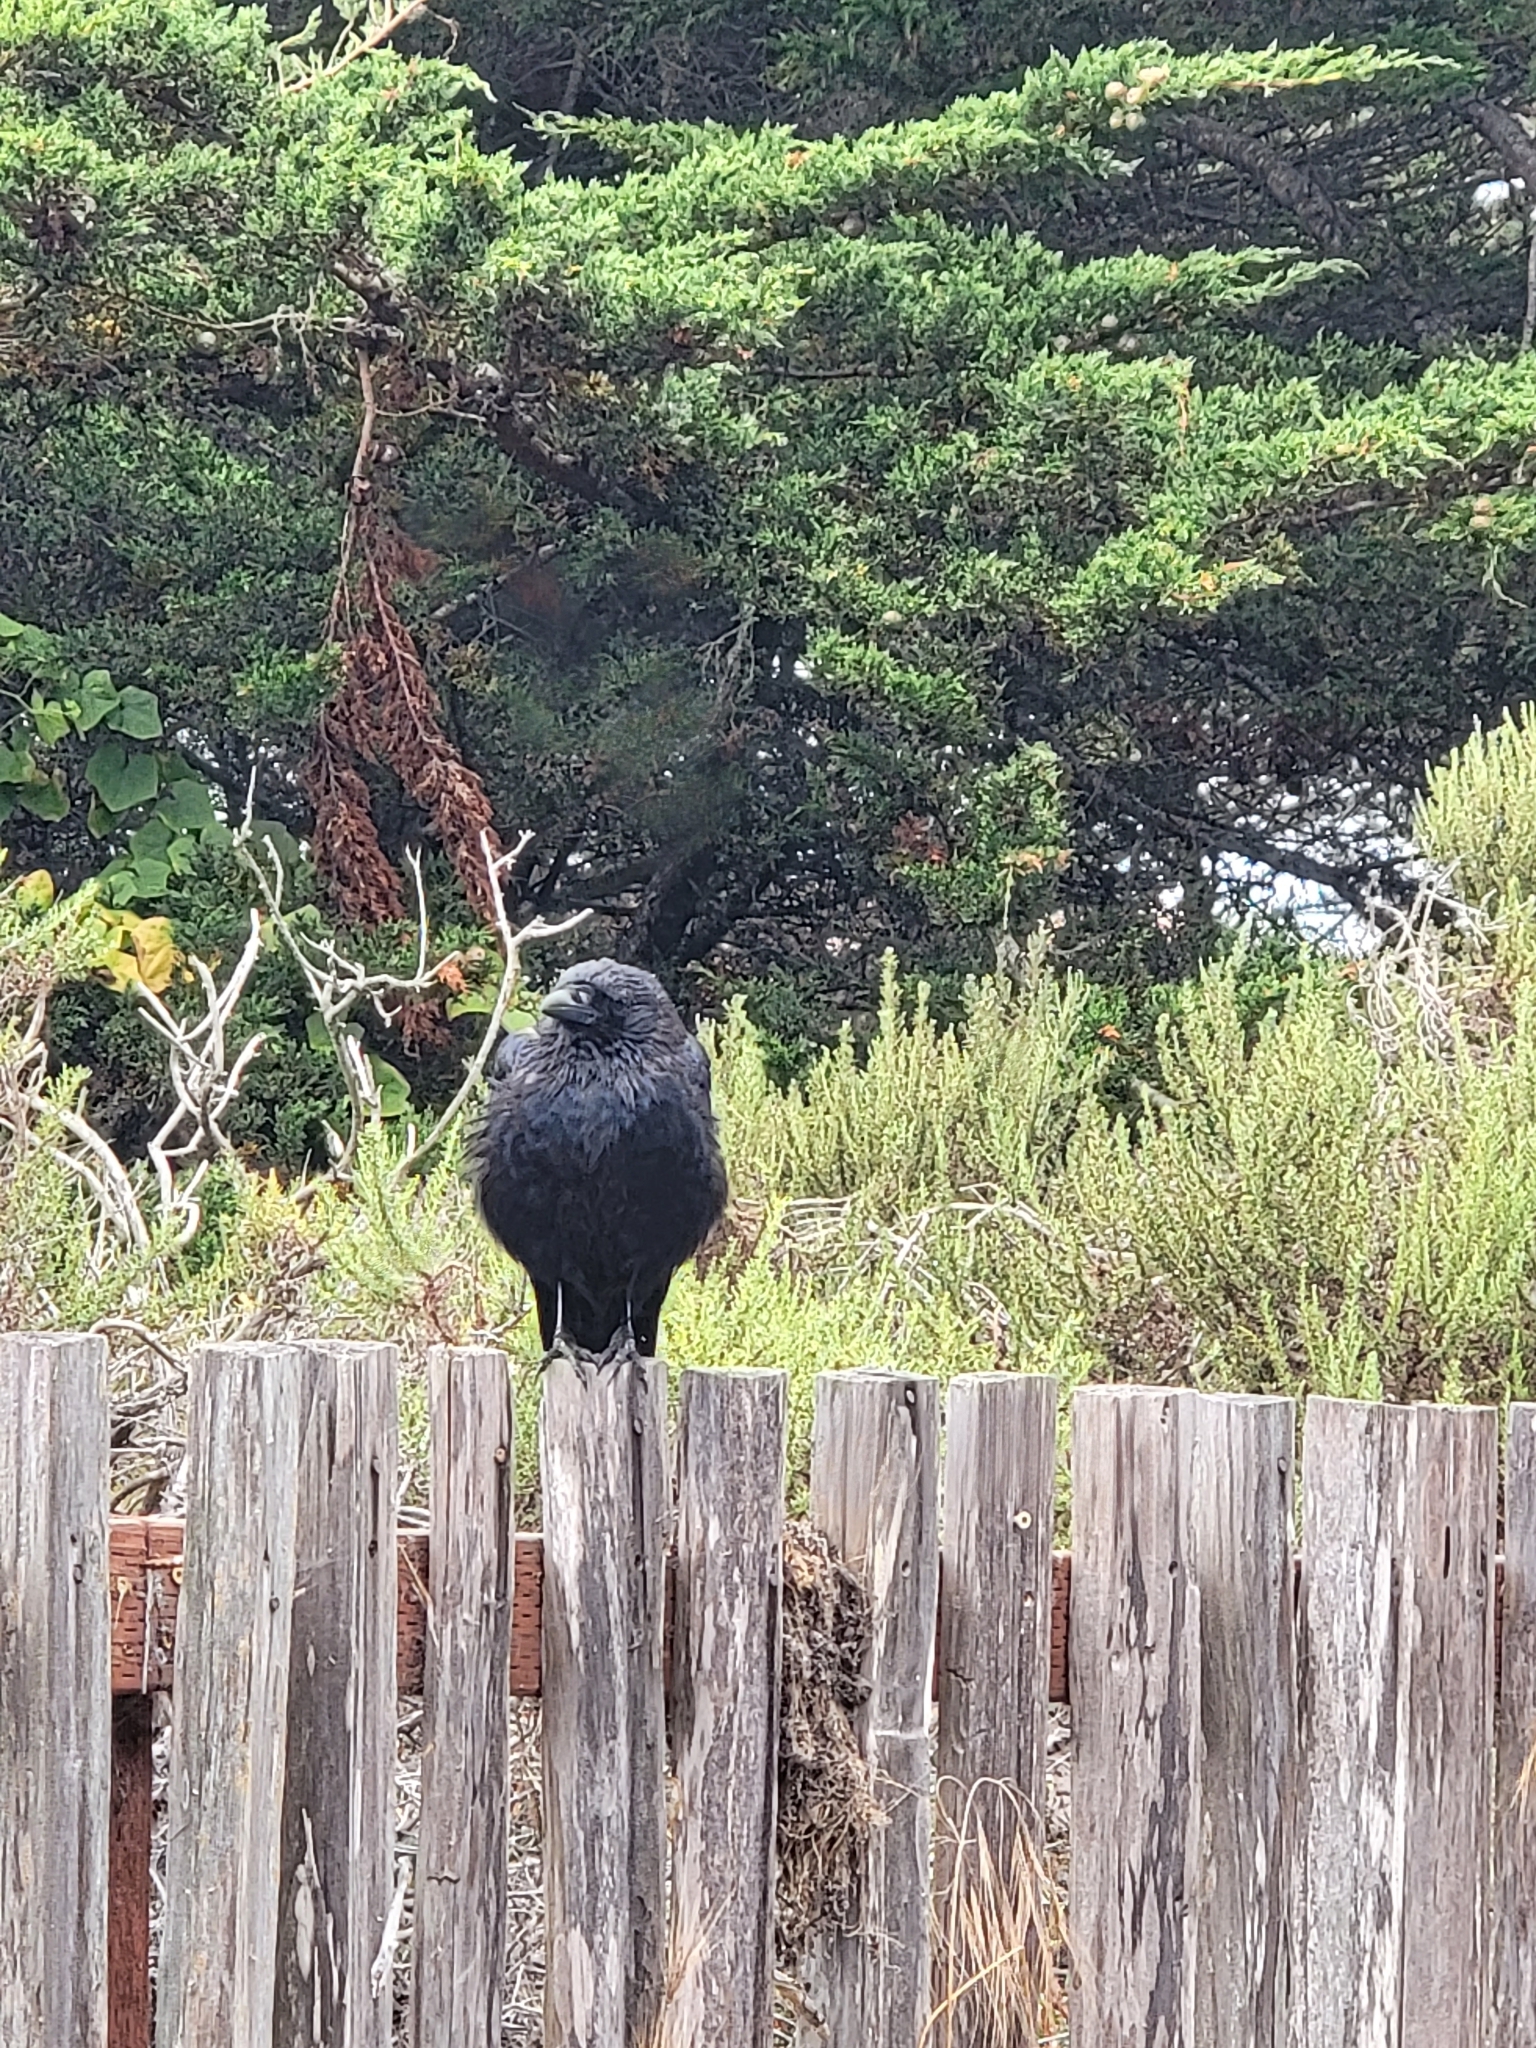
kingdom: Animalia
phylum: Chordata
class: Aves
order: Passeriformes
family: Corvidae
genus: Corvus
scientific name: Corvus corax
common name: Common raven
